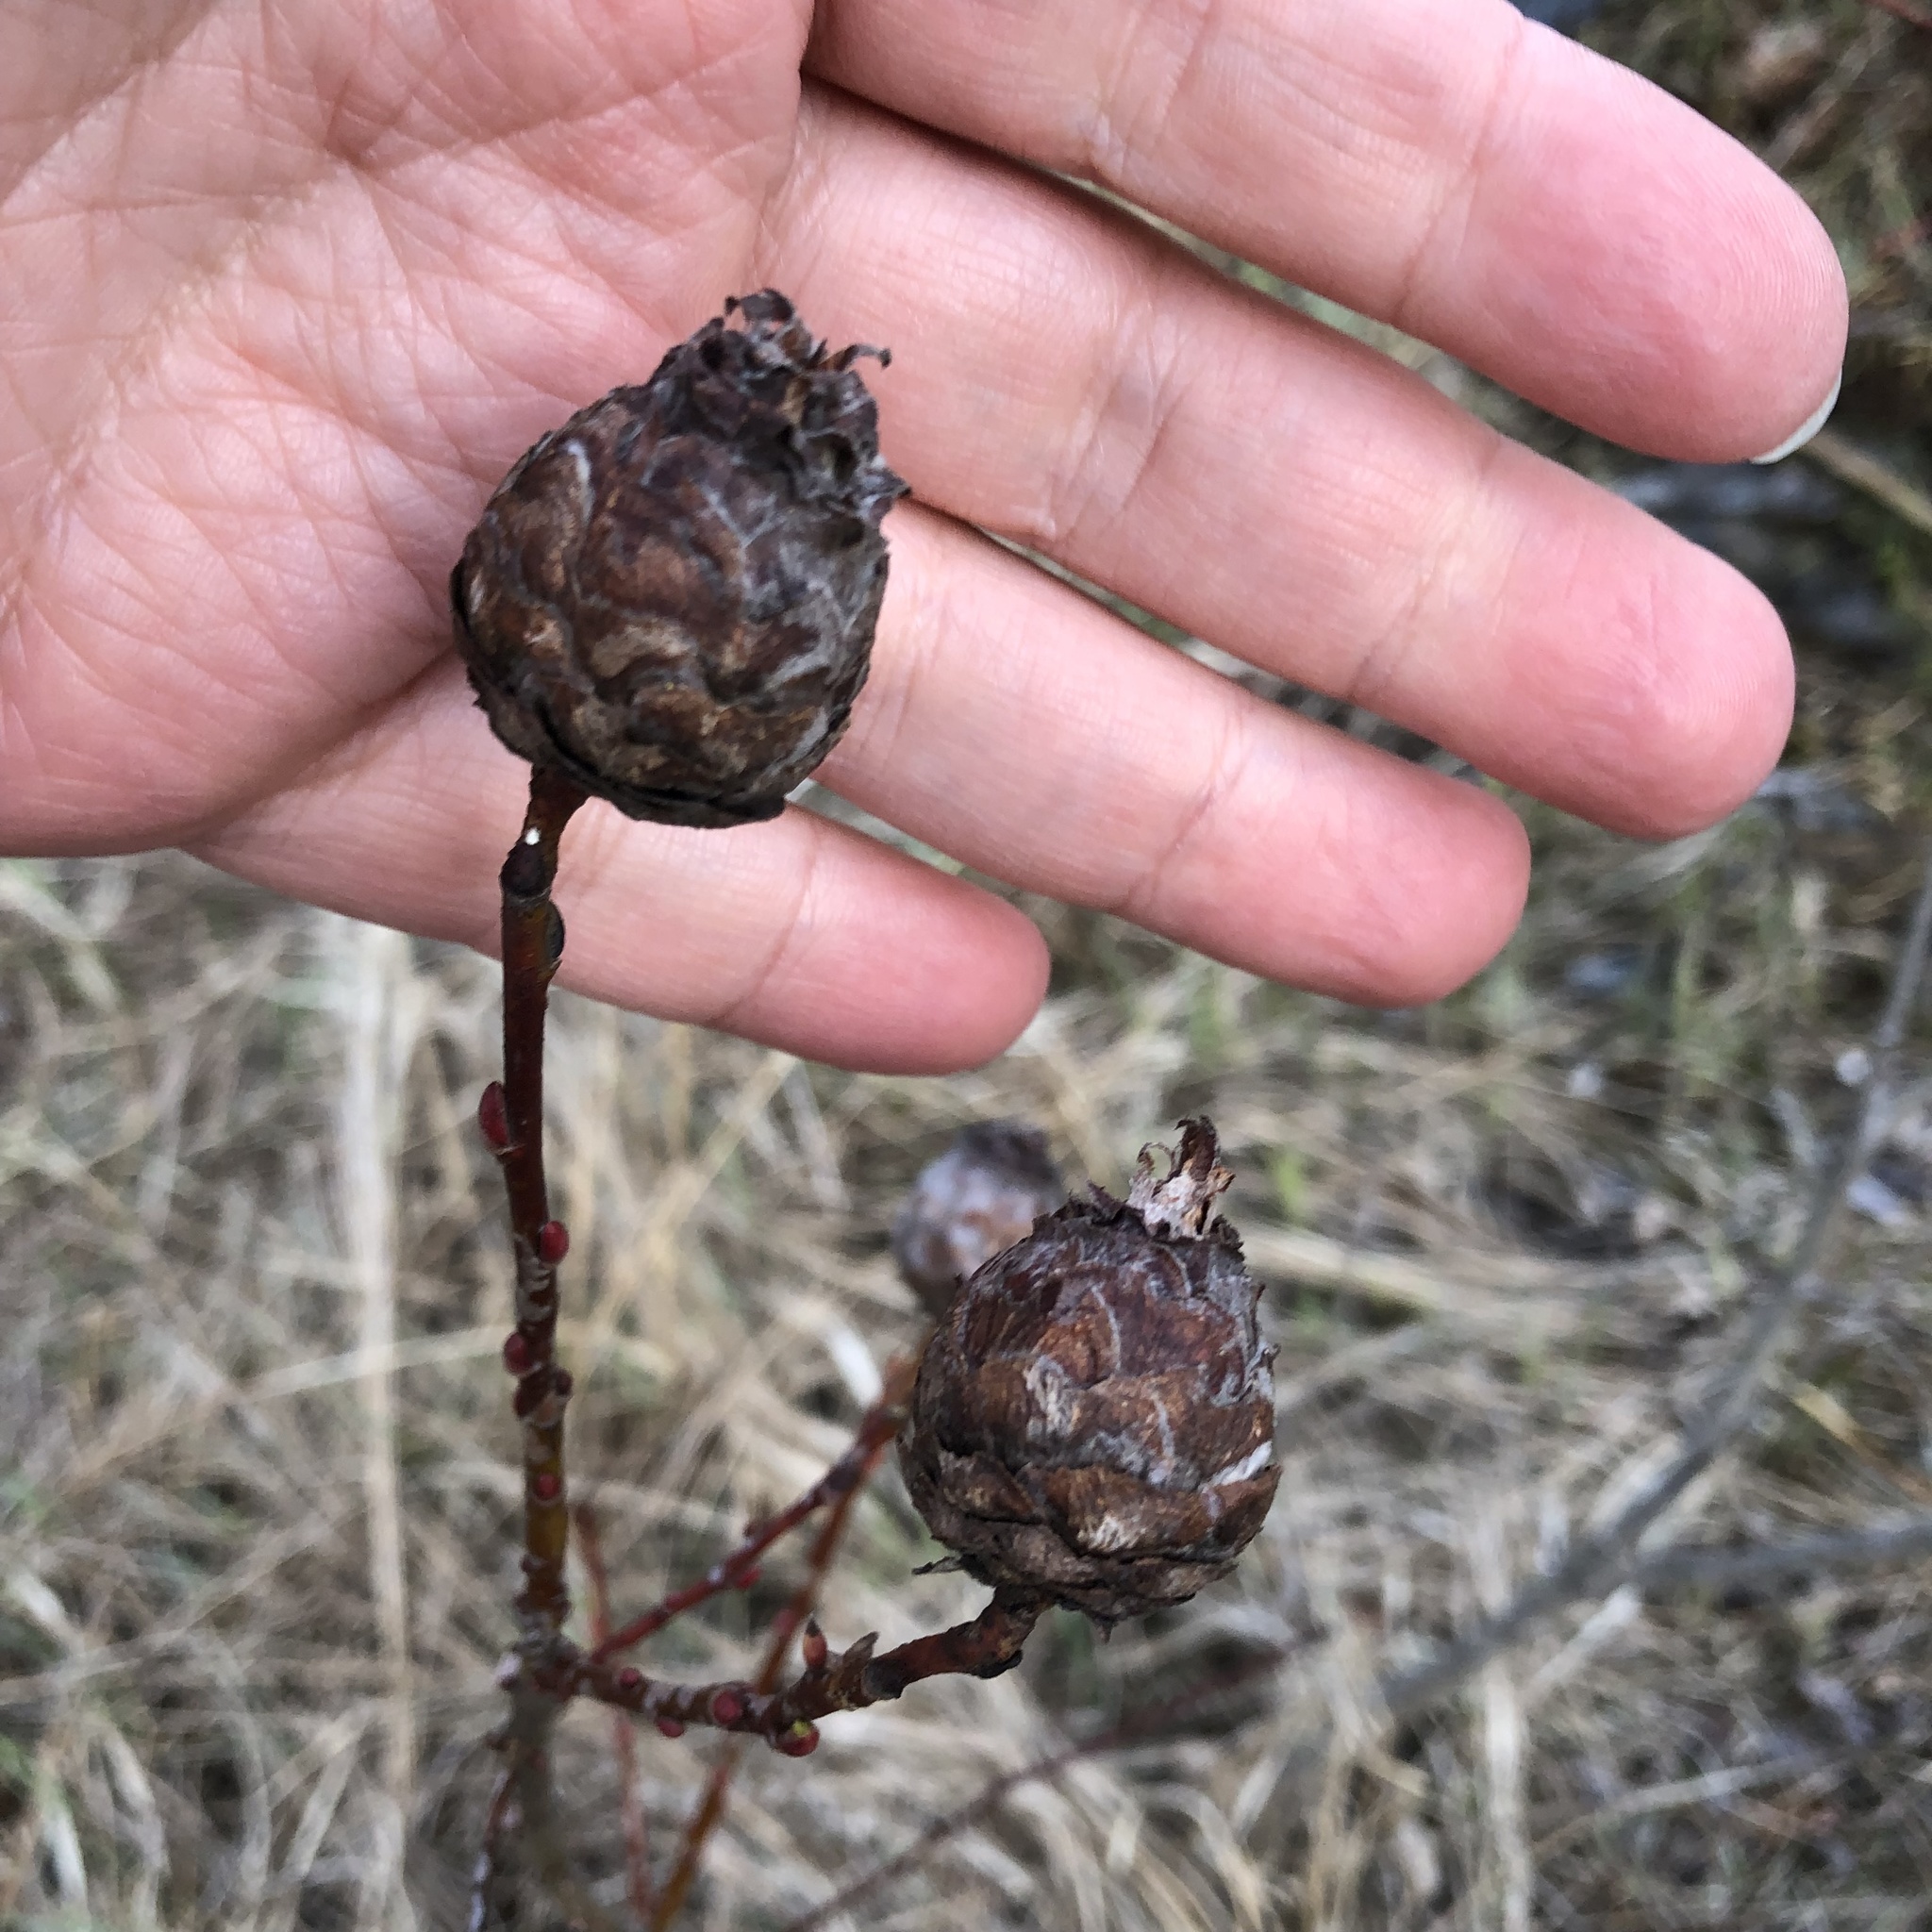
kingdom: Animalia
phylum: Arthropoda
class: Insecta
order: Diptera
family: Cecidomyiidae
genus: Rabdophaga
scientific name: Rabdophaga strobiloides
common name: Willow pinecone gall midge
